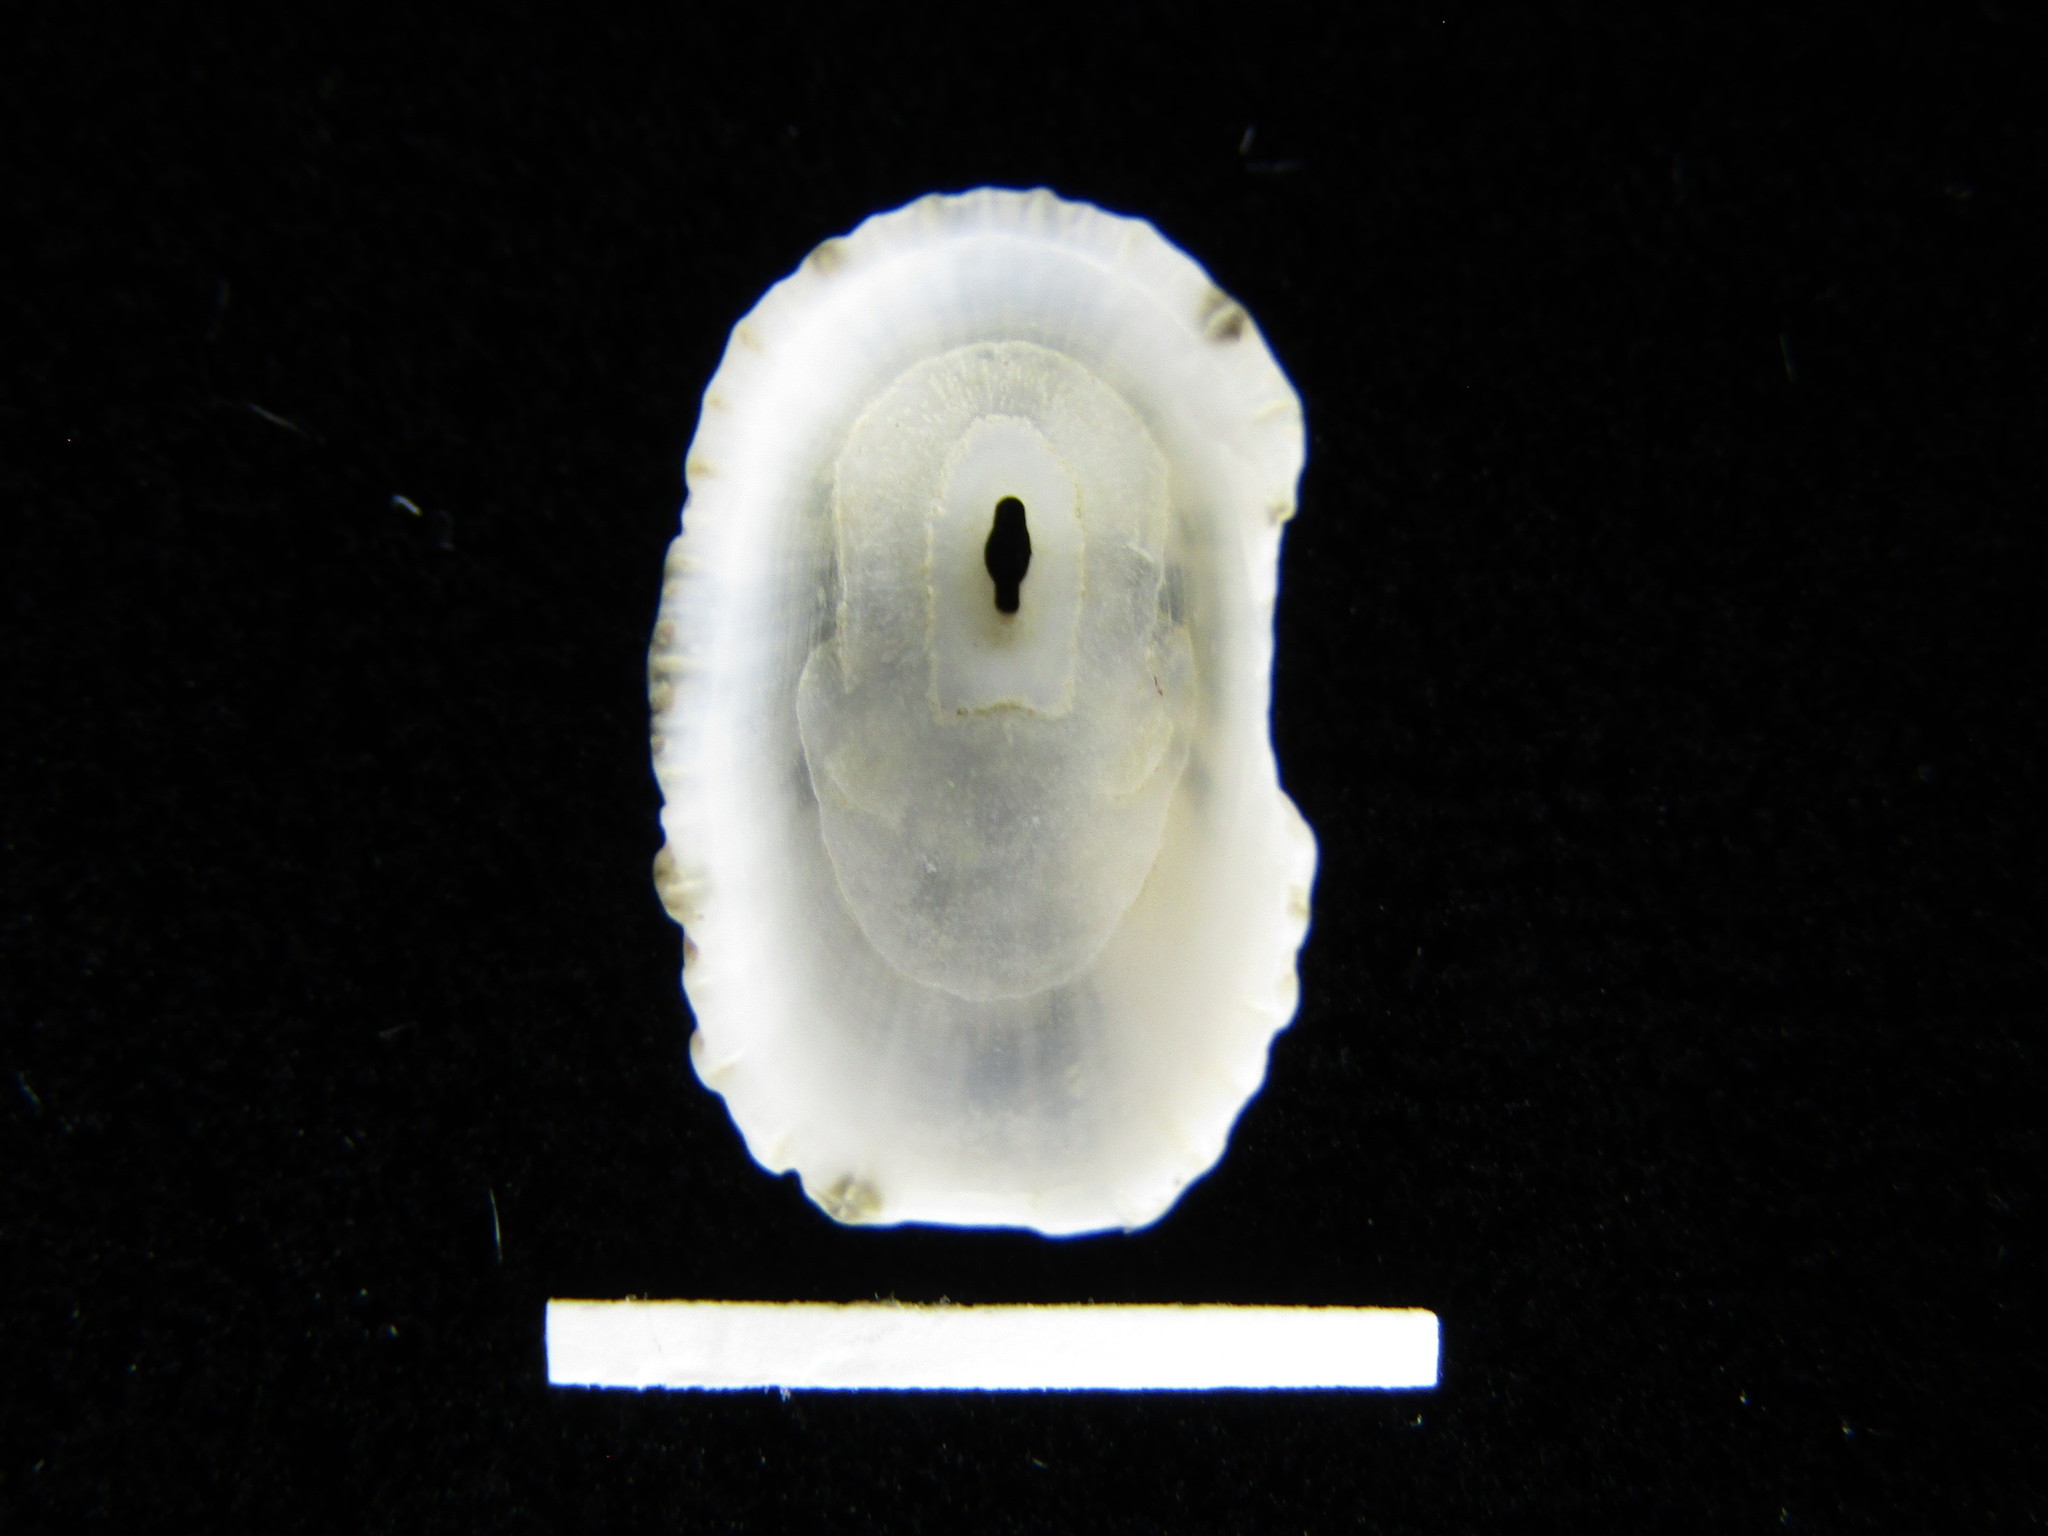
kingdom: Animalia
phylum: Mollusca
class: Gastropoda
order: Lepetellida
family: Fissurellidae
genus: Diodora
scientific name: Diodora quadriradiata
